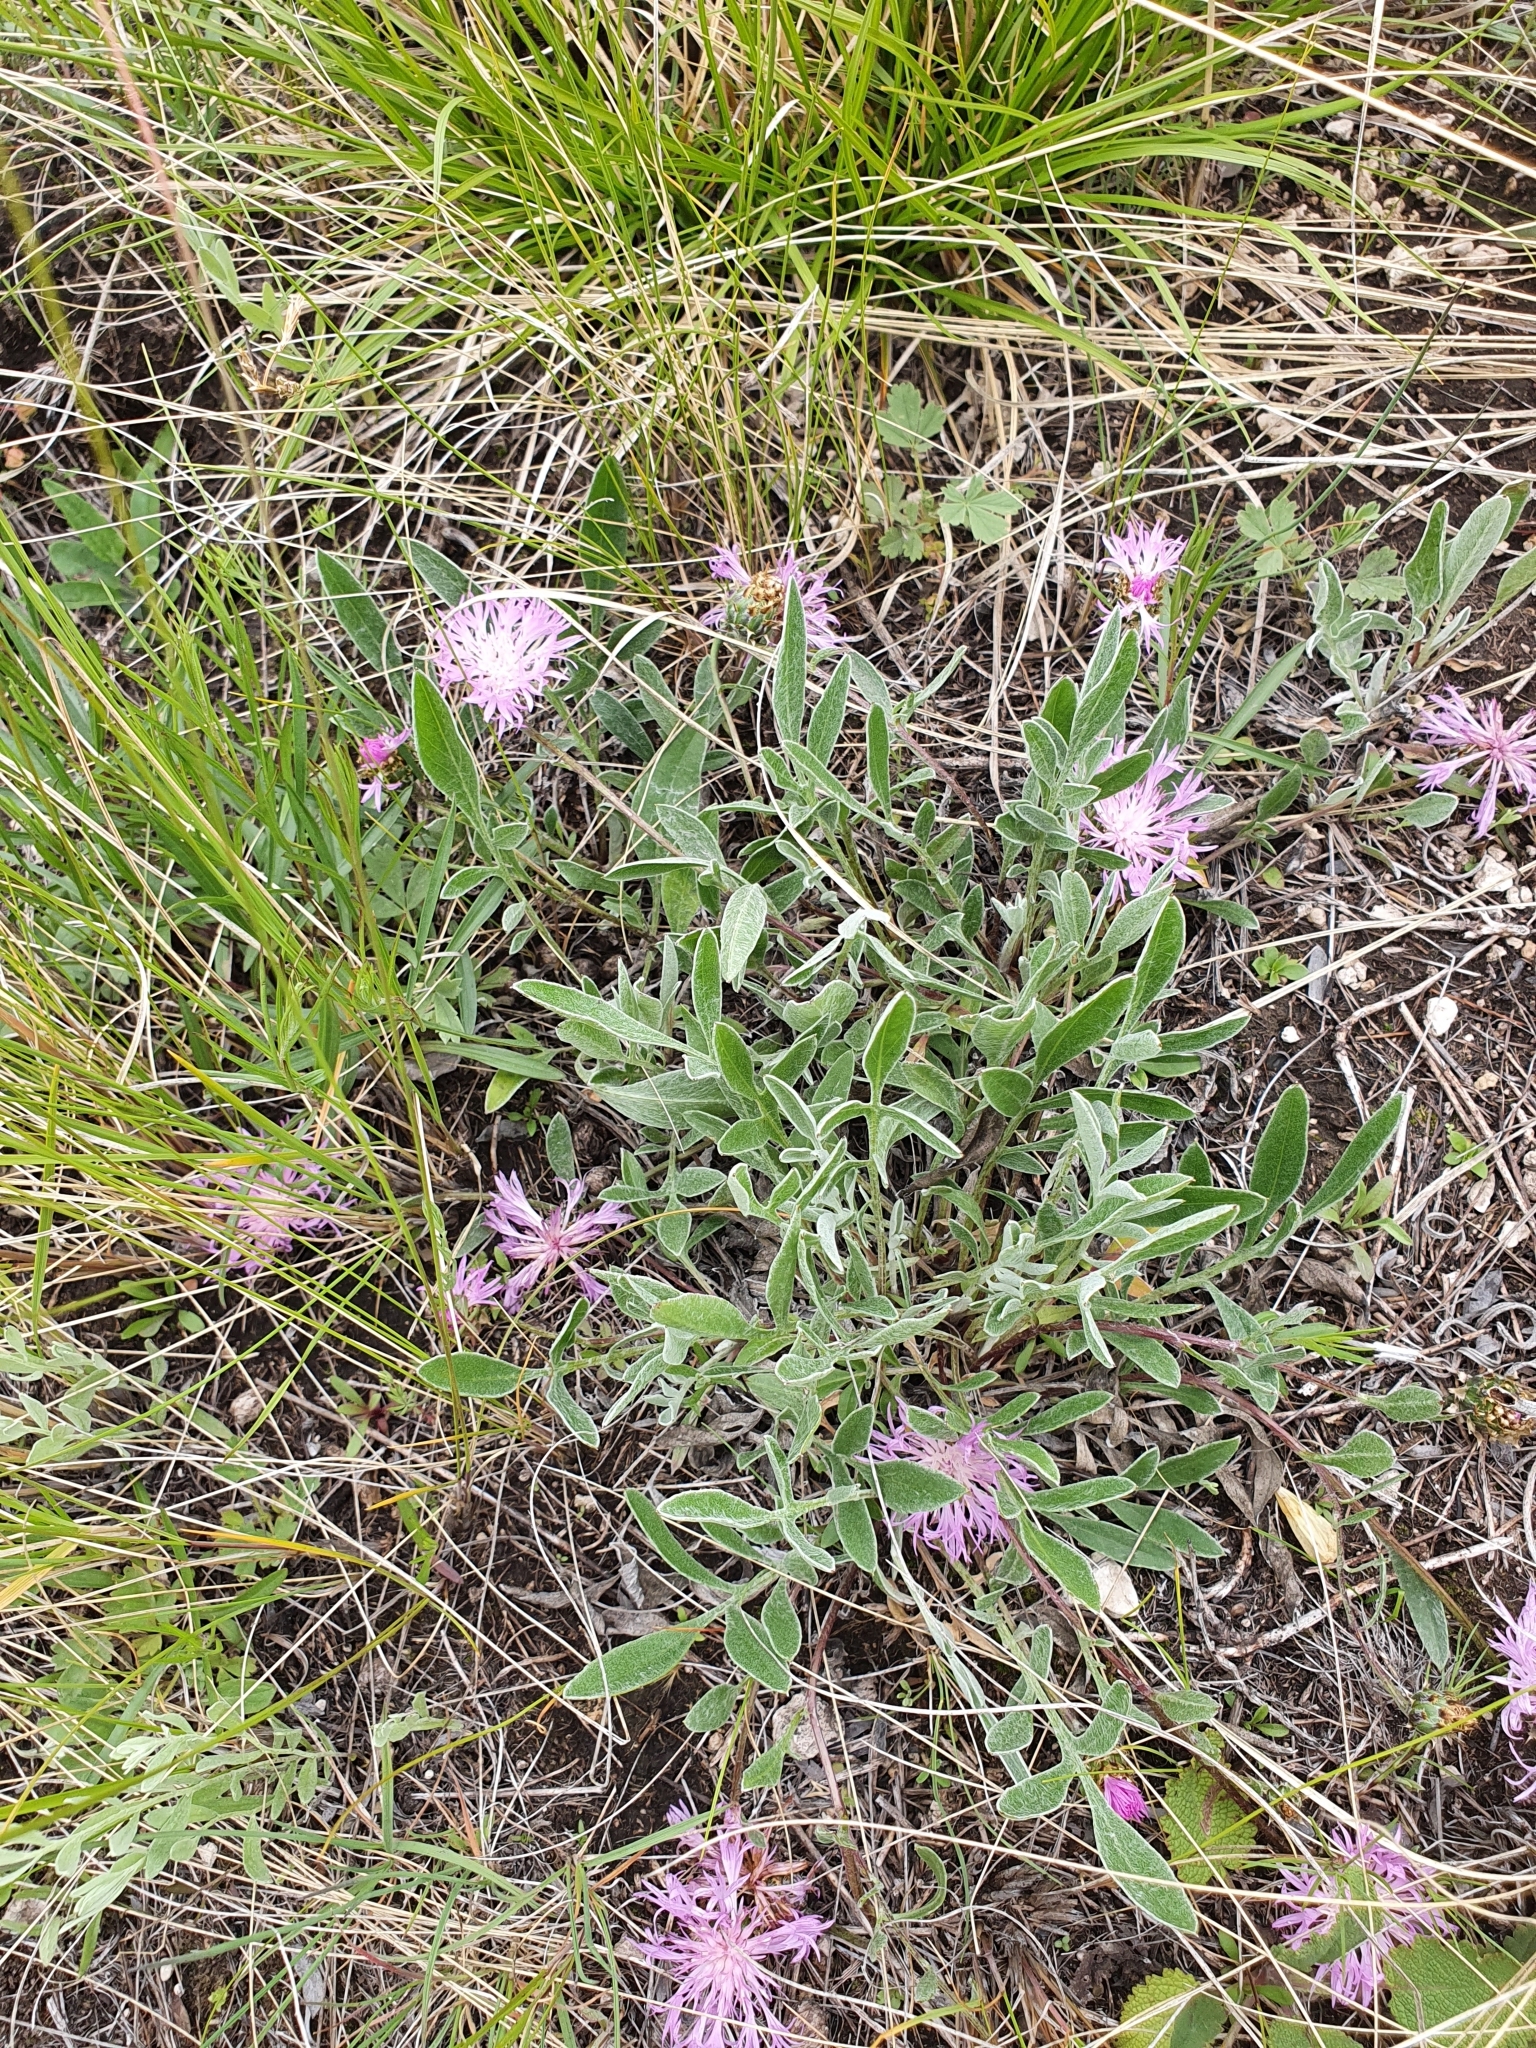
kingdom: Plantae
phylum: Tracheophyta
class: Magnoliopsida
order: Asterales
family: Asteraceae
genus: Psephellus
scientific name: Psephellus marschallianus
